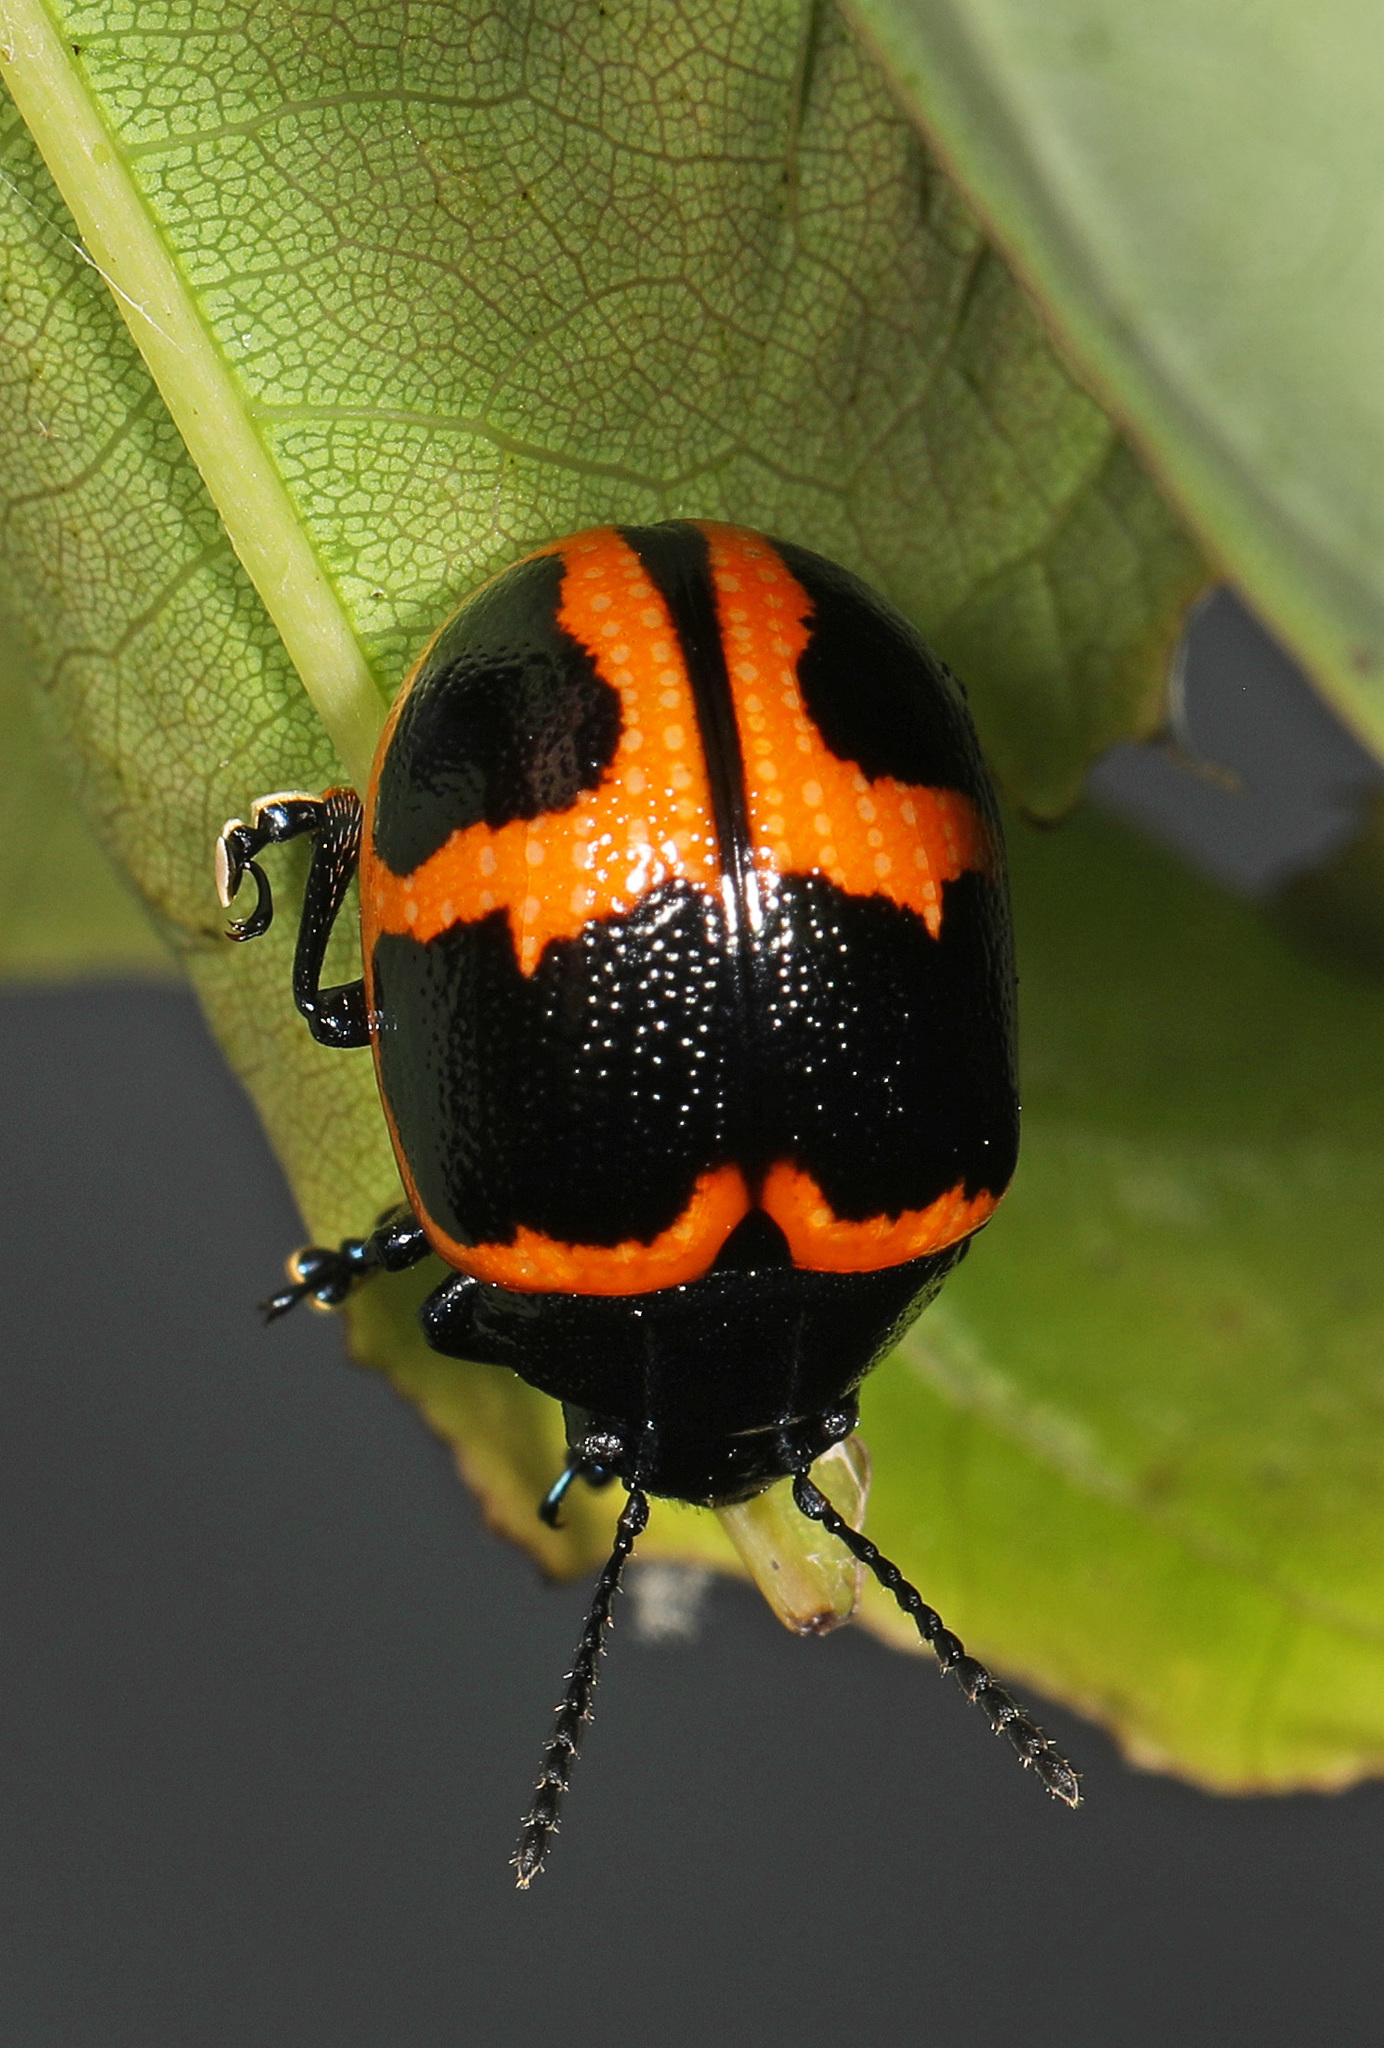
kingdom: Animalia
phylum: Arthropoda
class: Insecta
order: Coleoptera
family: Chrysomelidae
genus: Labidomera
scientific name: Labidomera clivicollis
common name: Swamp milkweed leaf beetle
